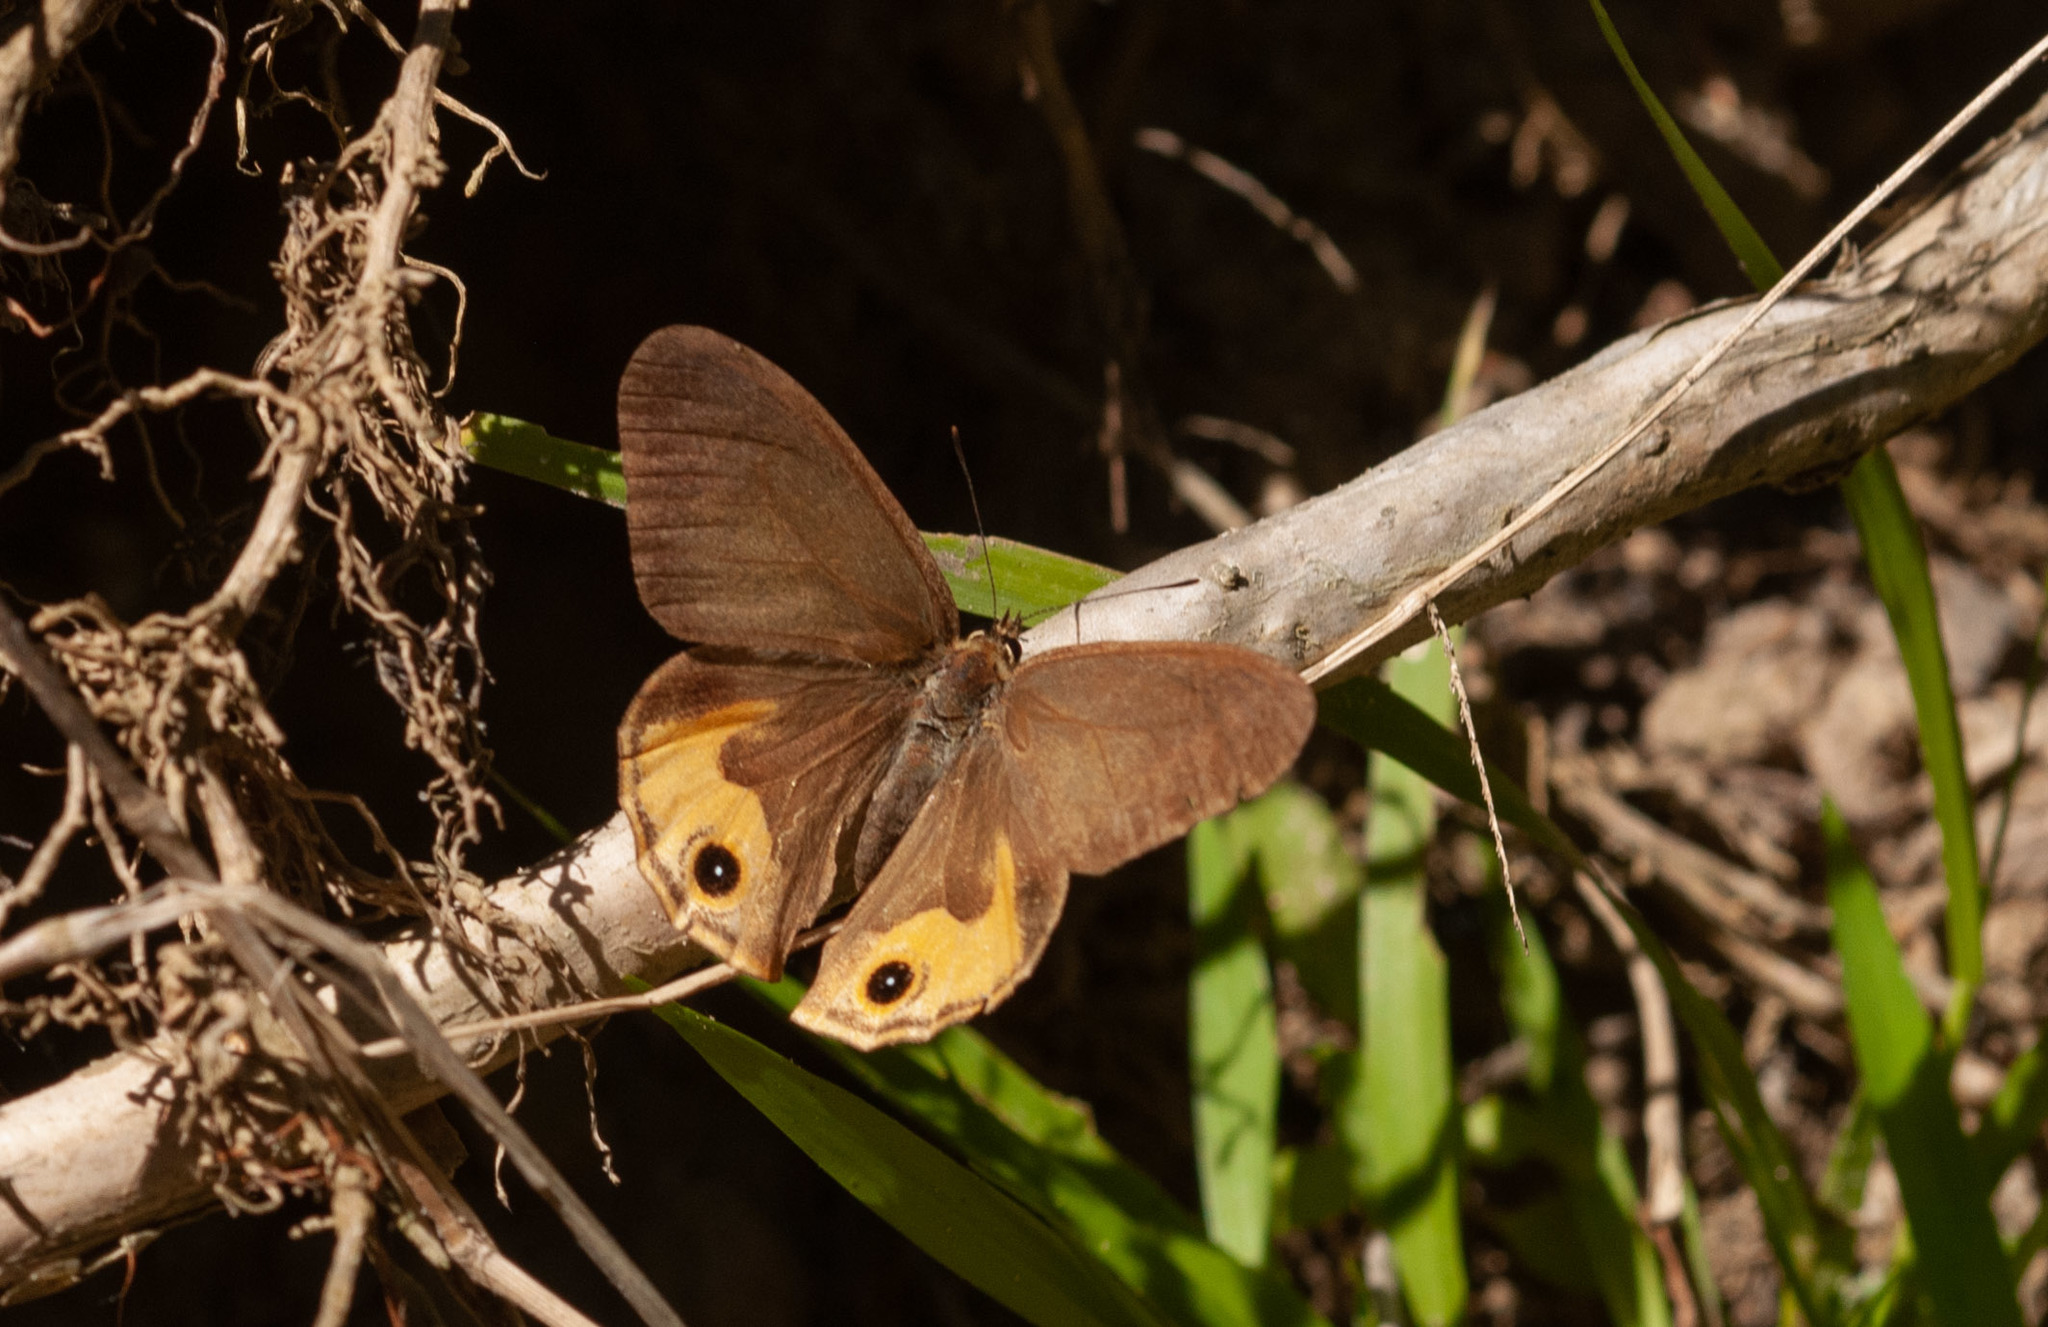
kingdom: Animalia
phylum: Arthropoda
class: Insecta
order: Lepidoptera
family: Nymphalidae
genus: Hypocysta
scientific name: Hypocysta metirius
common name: Brown ringlet
